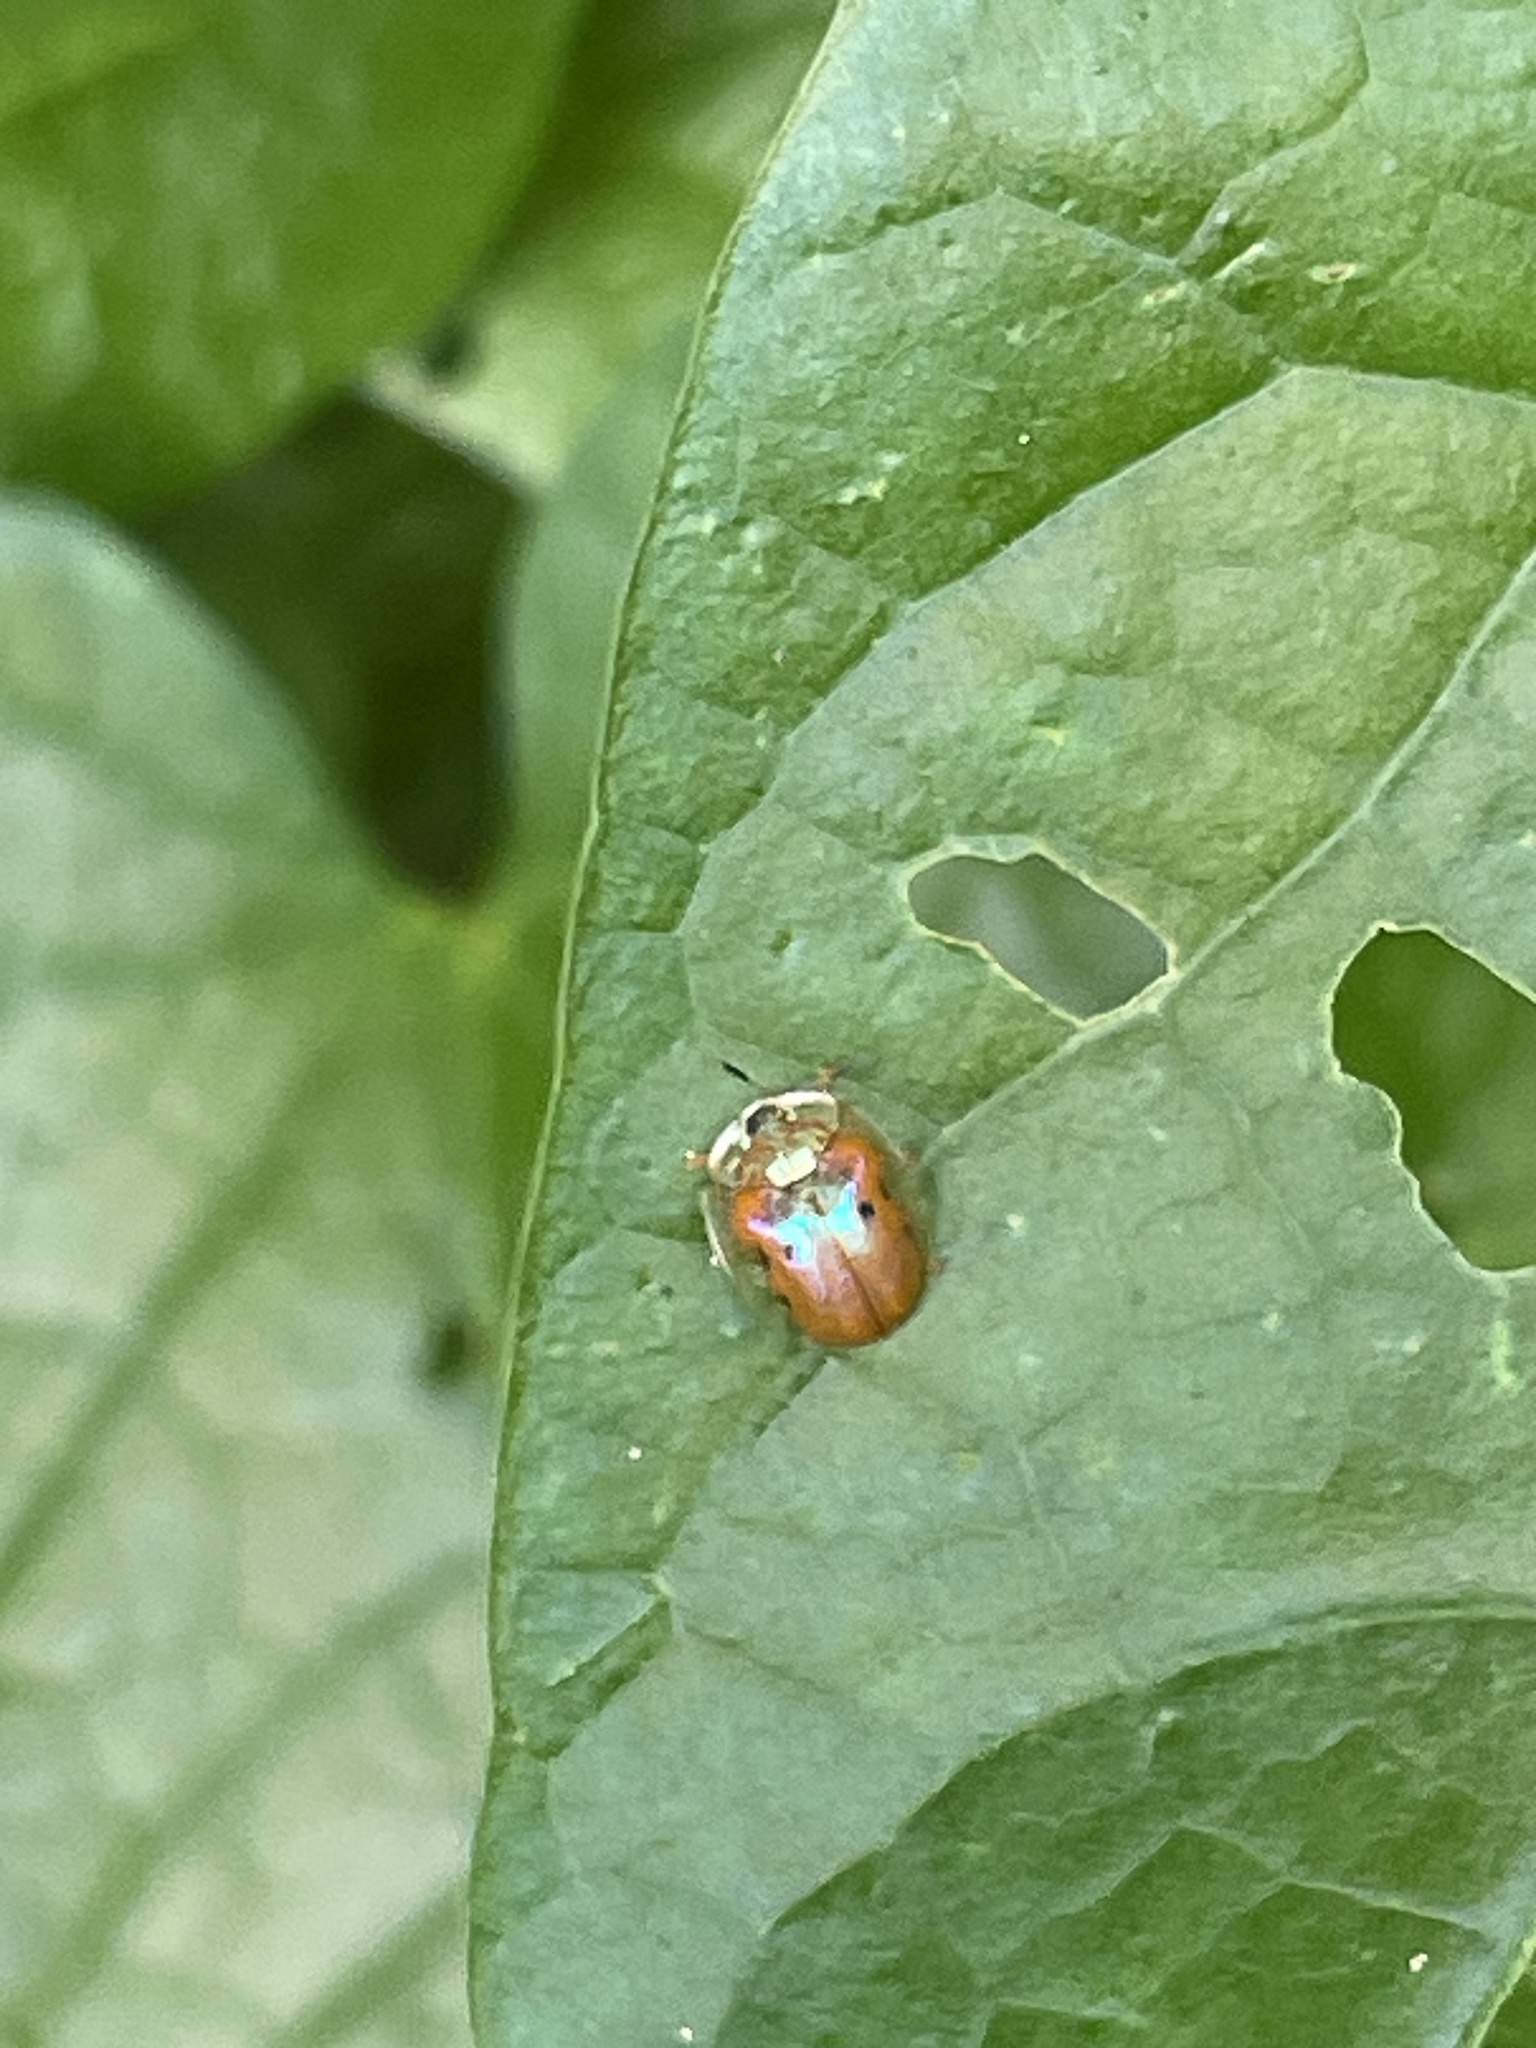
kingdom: Animalia
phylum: Arthropoda
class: Insecta
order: Coleoptera
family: Chrysomelidae
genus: Charidotella
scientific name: Charidotella sexpunctata
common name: Golden tortoise beetle
